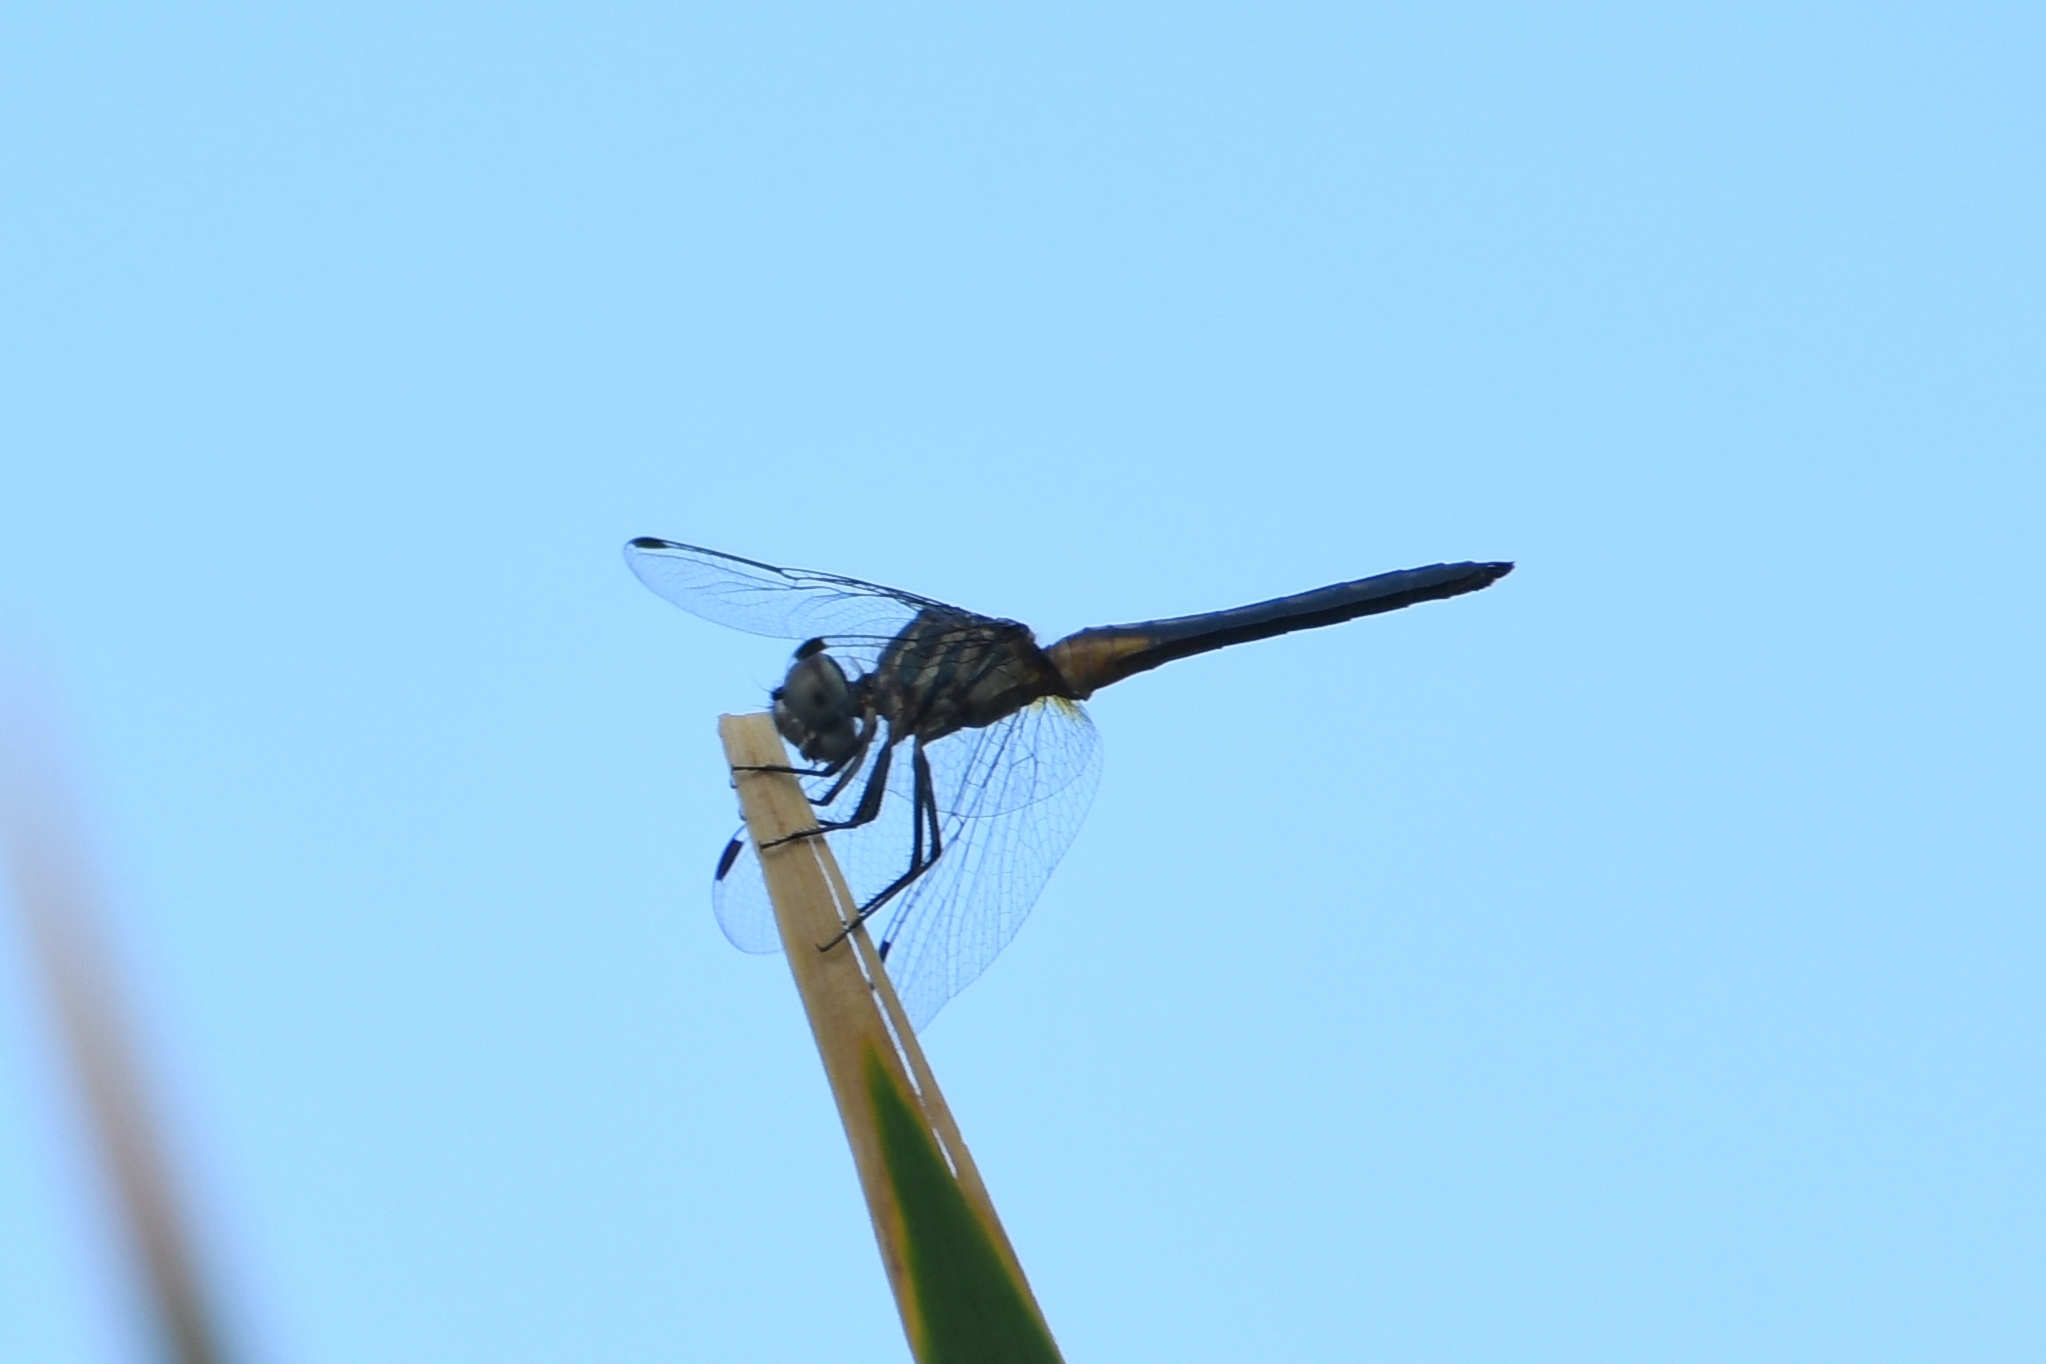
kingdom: Animalia
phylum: Arthropoda
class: Insecta
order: Odonata
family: Libellulidae
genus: Pachydiplax
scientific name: Pachydiplax longipennis
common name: Blue dasher
